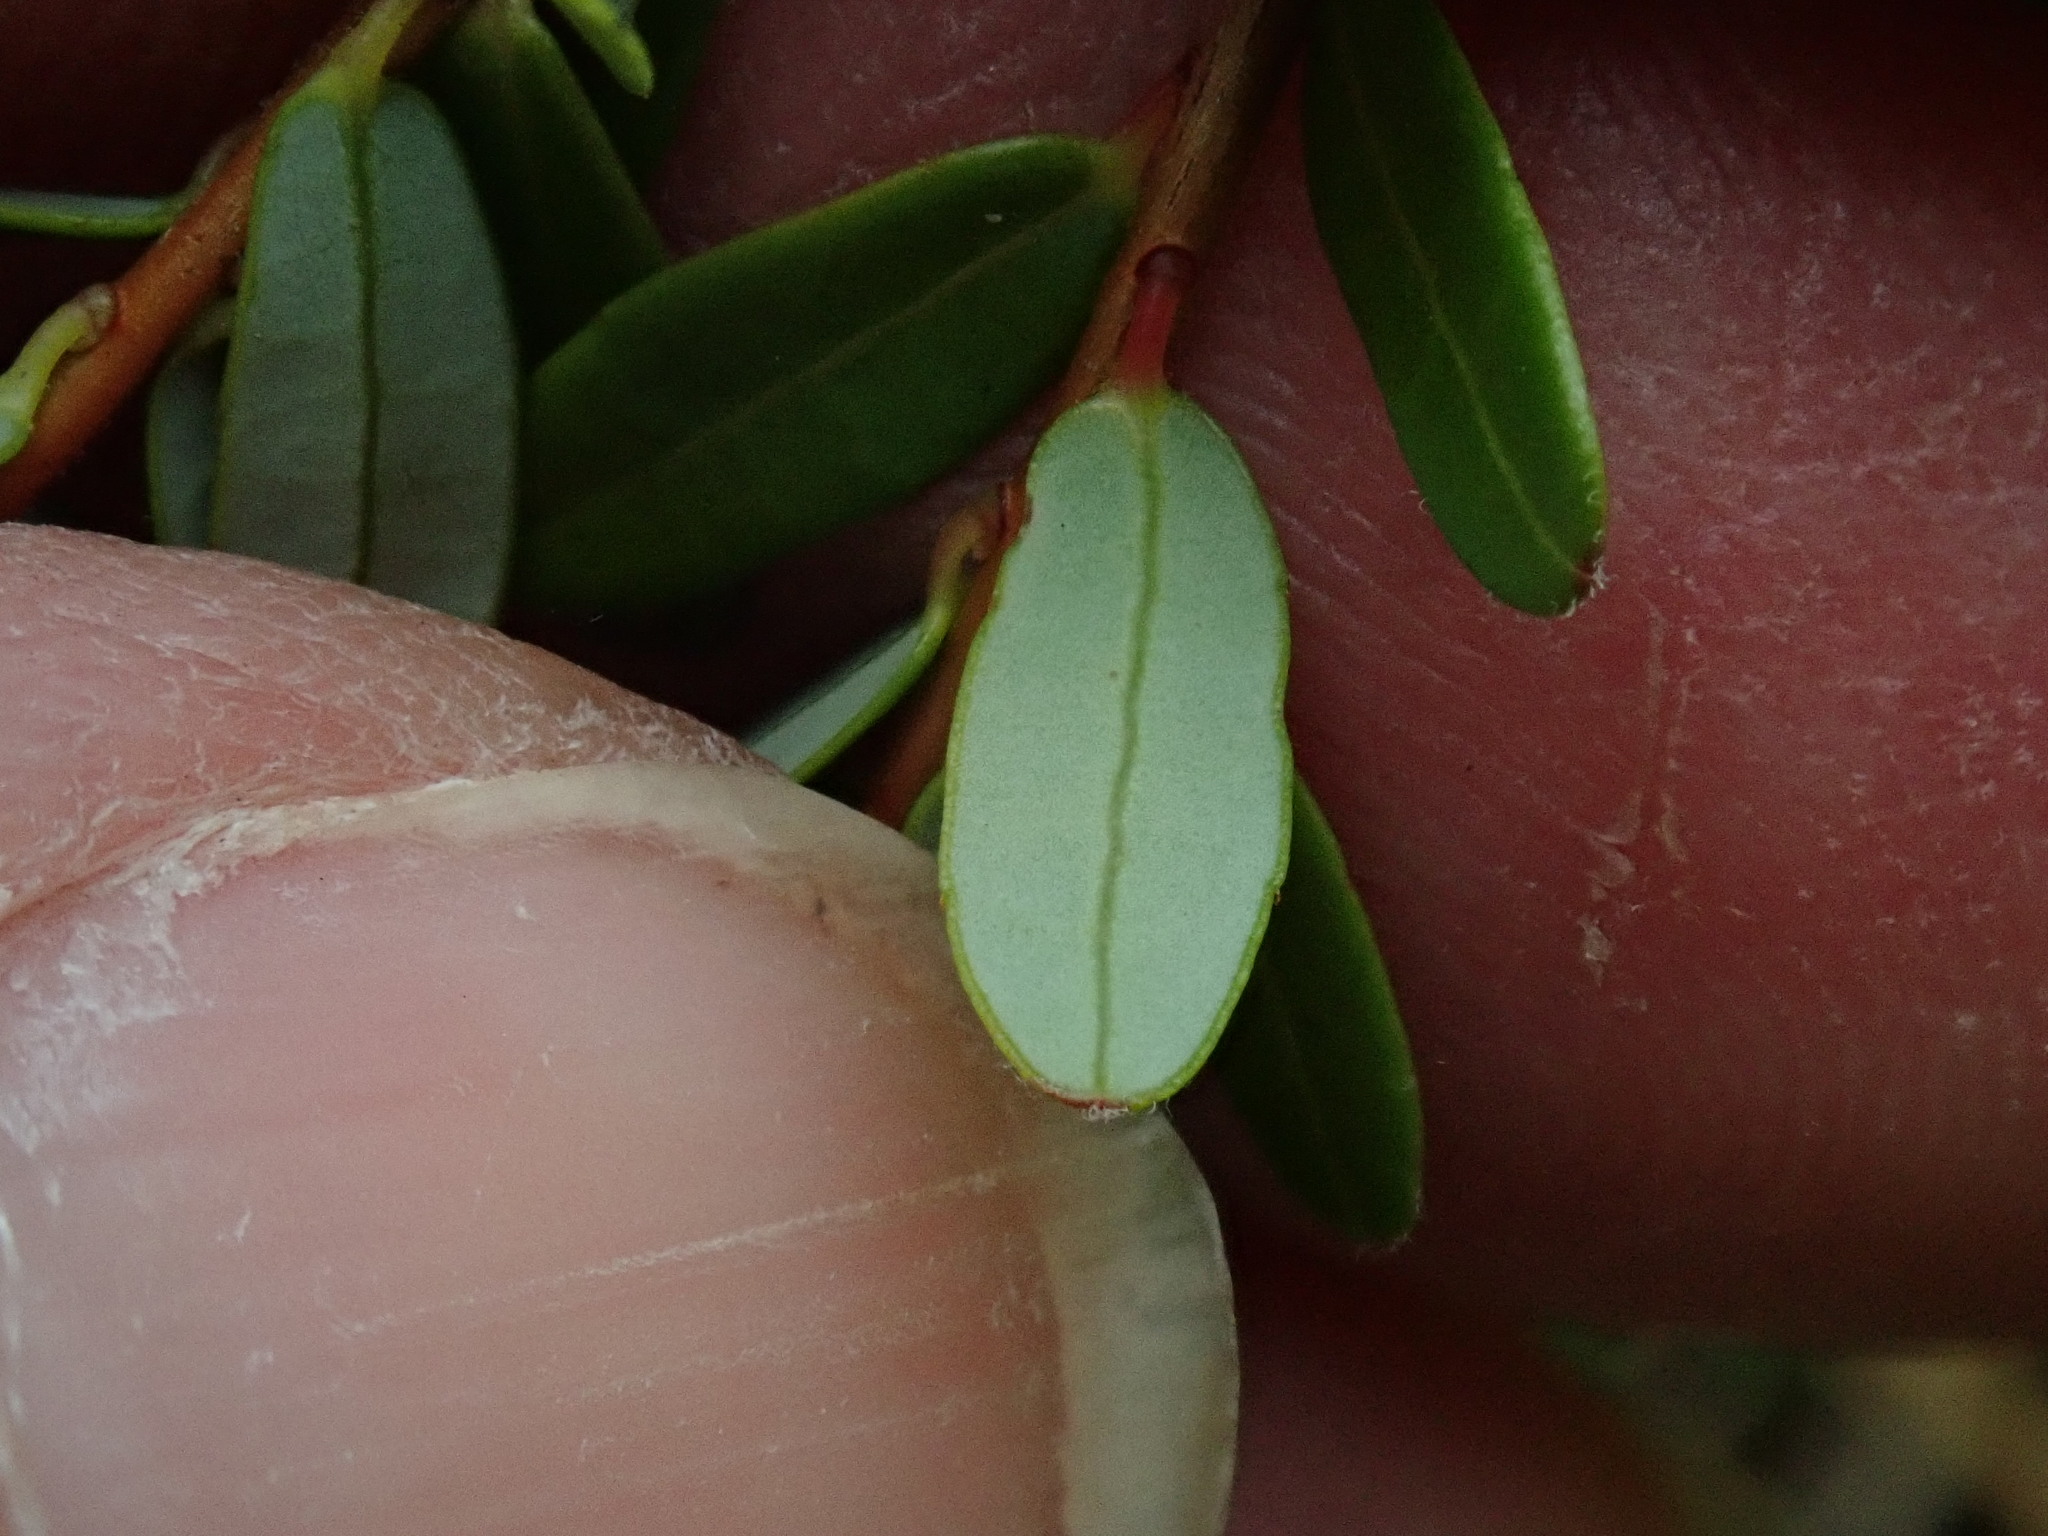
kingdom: Plantae
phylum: Tracheophyta
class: Magnoliopsida
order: Ericales
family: Ericaceae
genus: Vaccinium
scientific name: Vaccinium macrocarpon
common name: American cranberry
